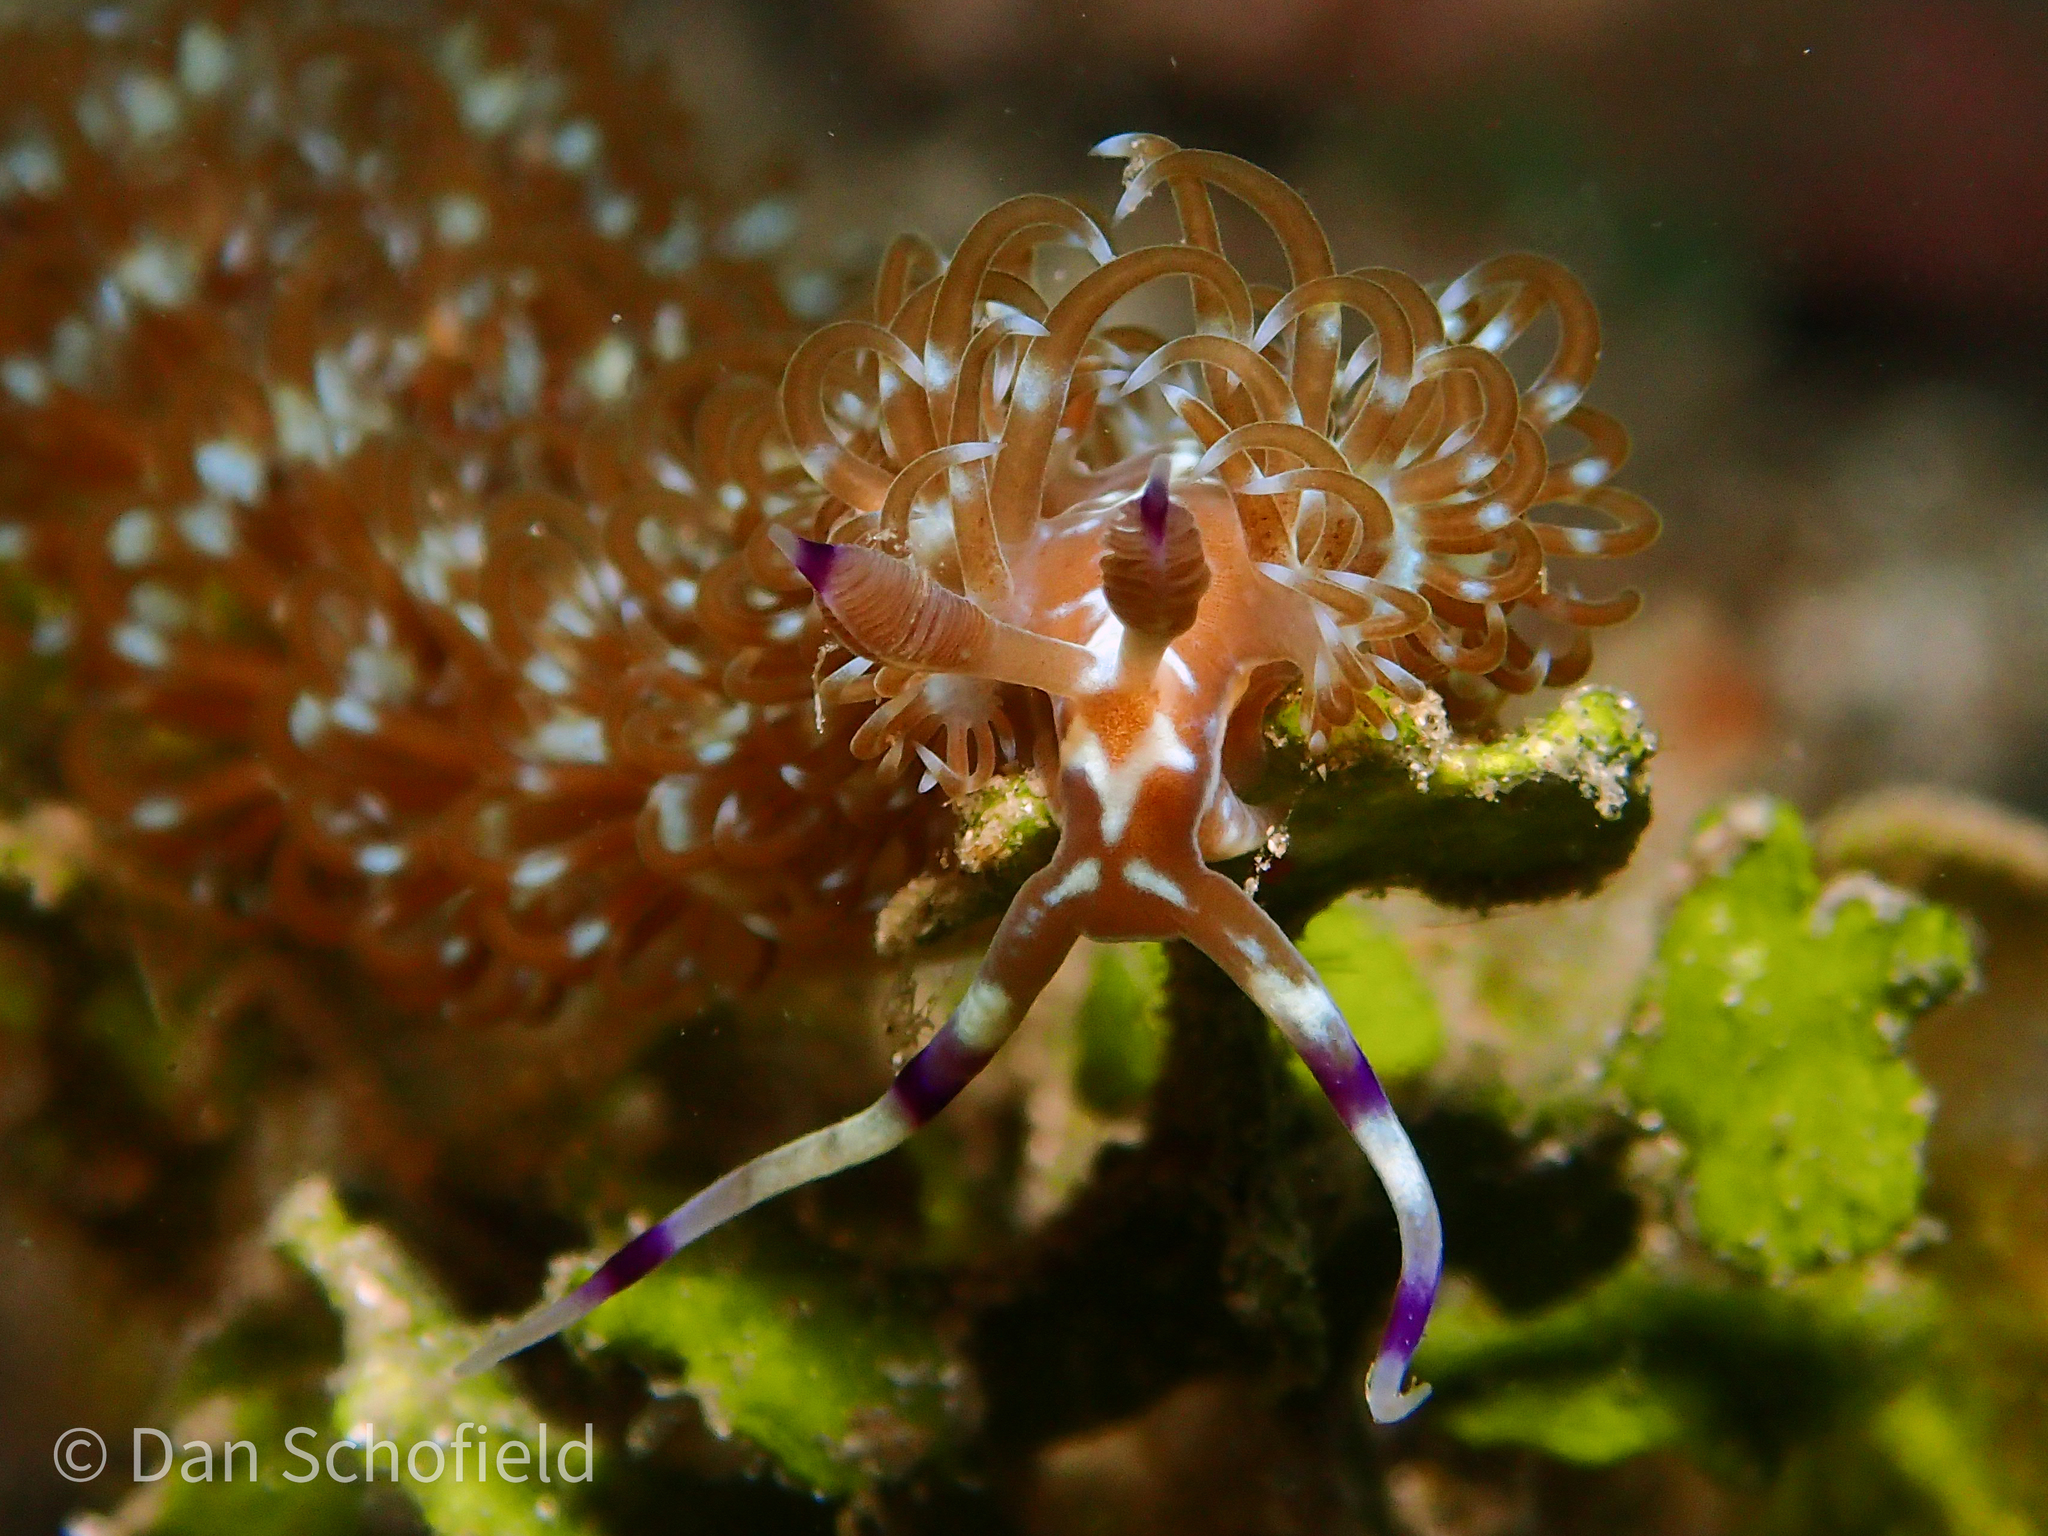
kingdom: Animalia
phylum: Mollusca
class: Gastropoda
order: Nudibranchia
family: Facelinidae
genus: Pteraeolidia
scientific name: Pteraeolidia semperi
